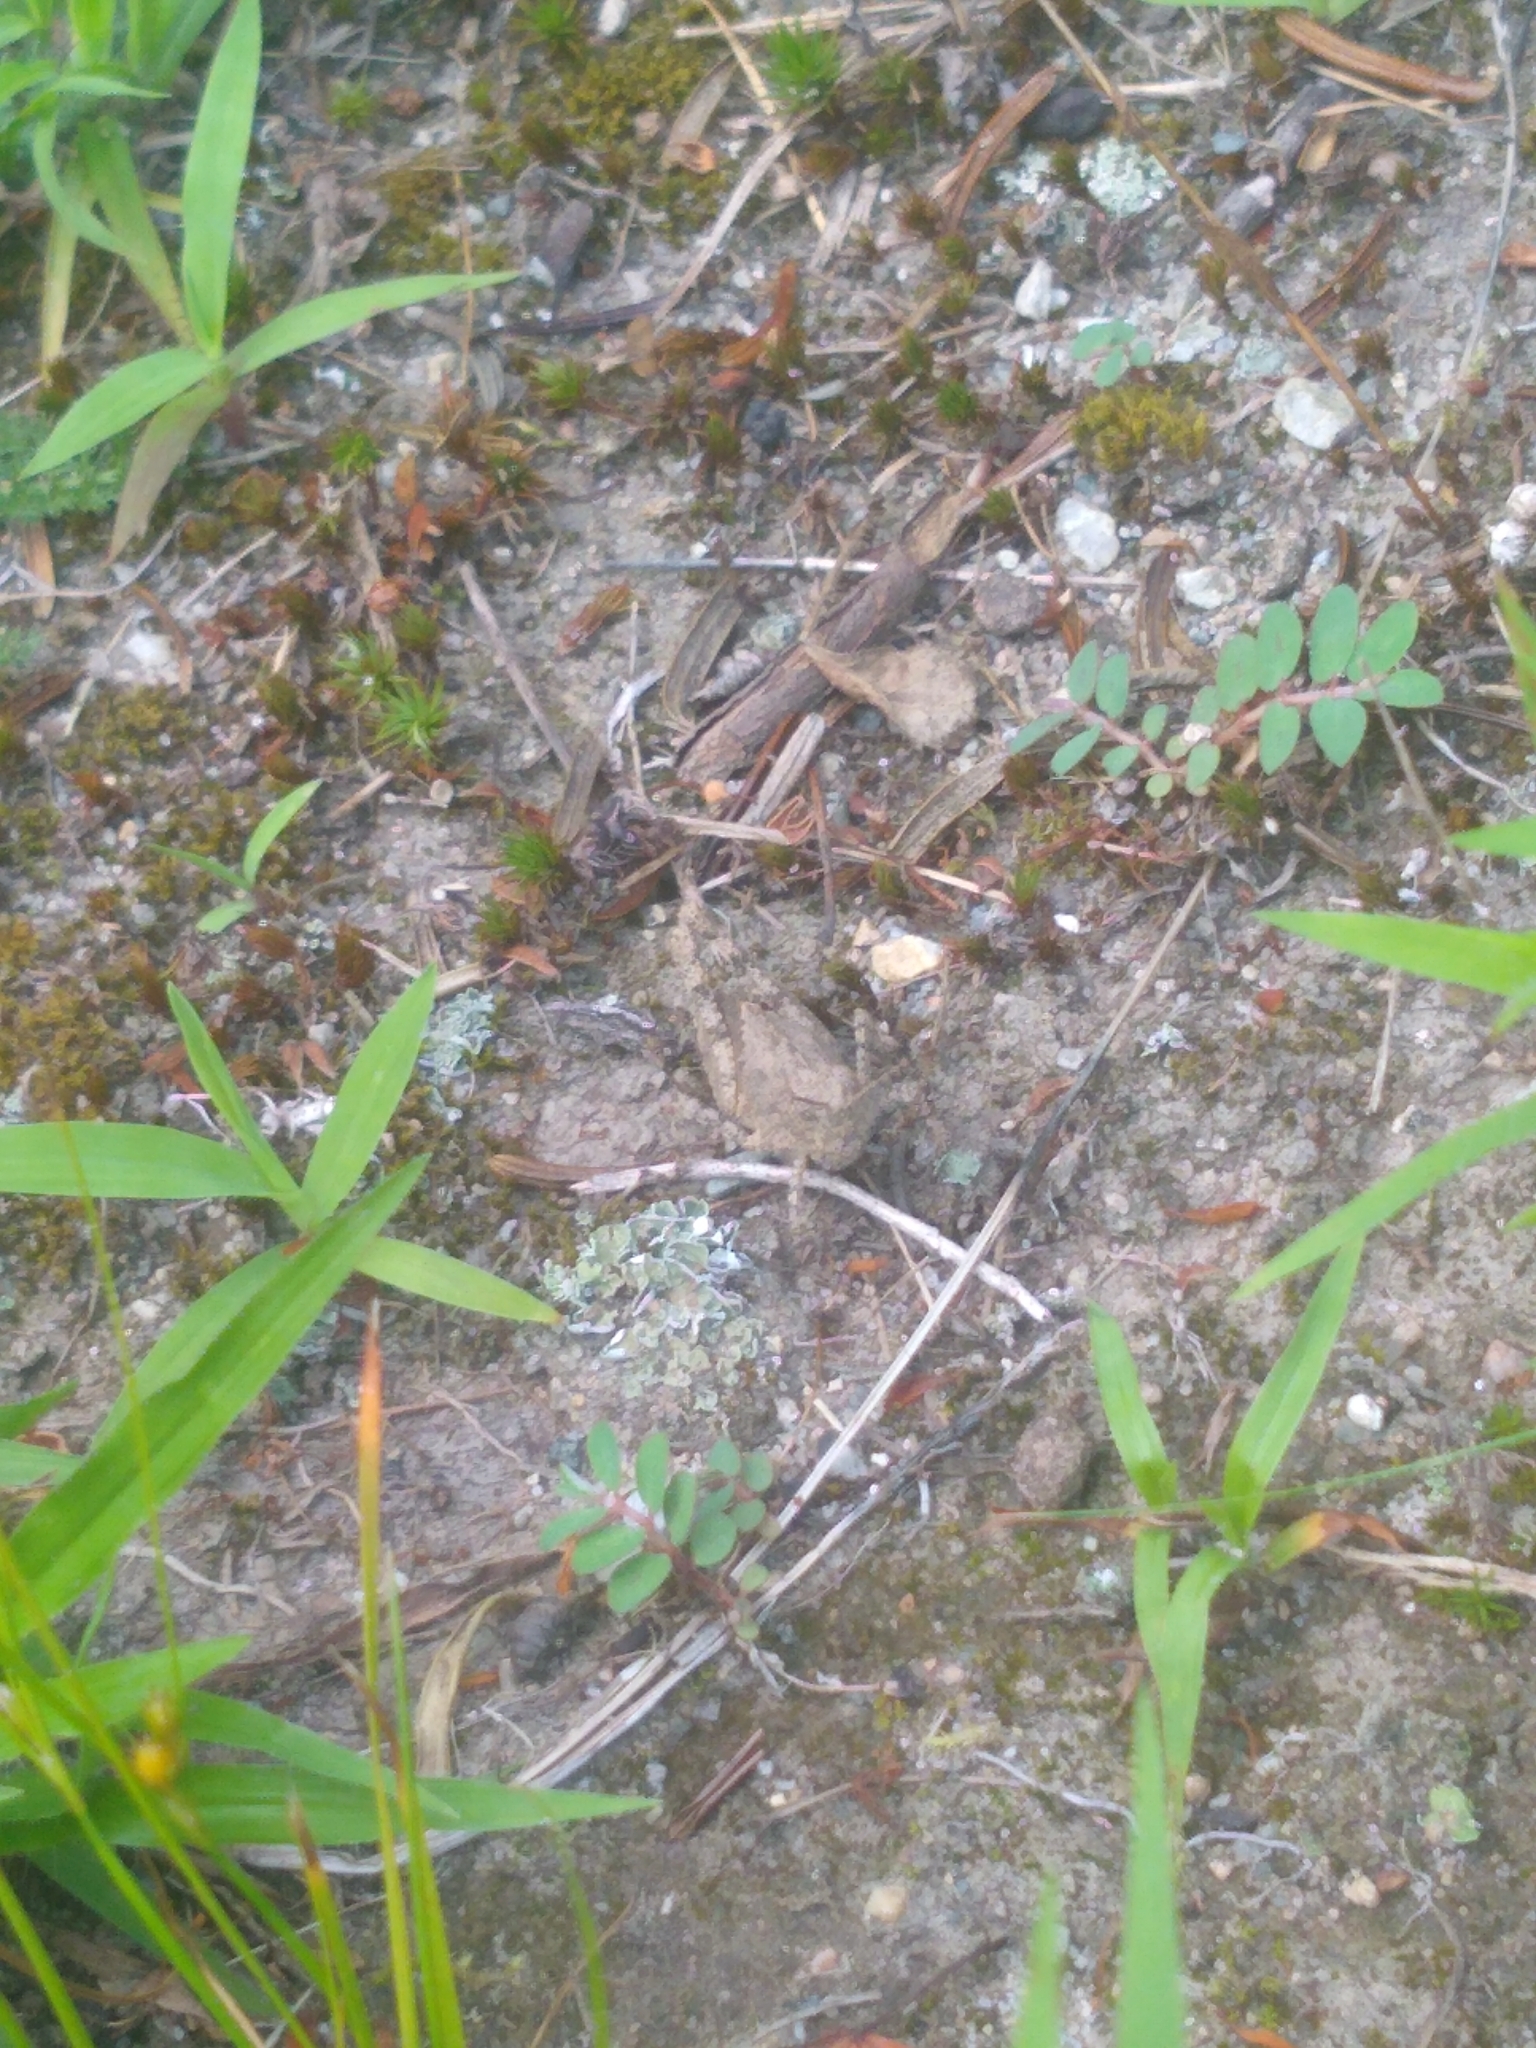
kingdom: Animalia
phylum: Arthropoda
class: Insecta
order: Orthoptera
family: Acrididae
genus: Dissosteira
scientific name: Dissosteira carolina
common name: Carolina grasshopper
